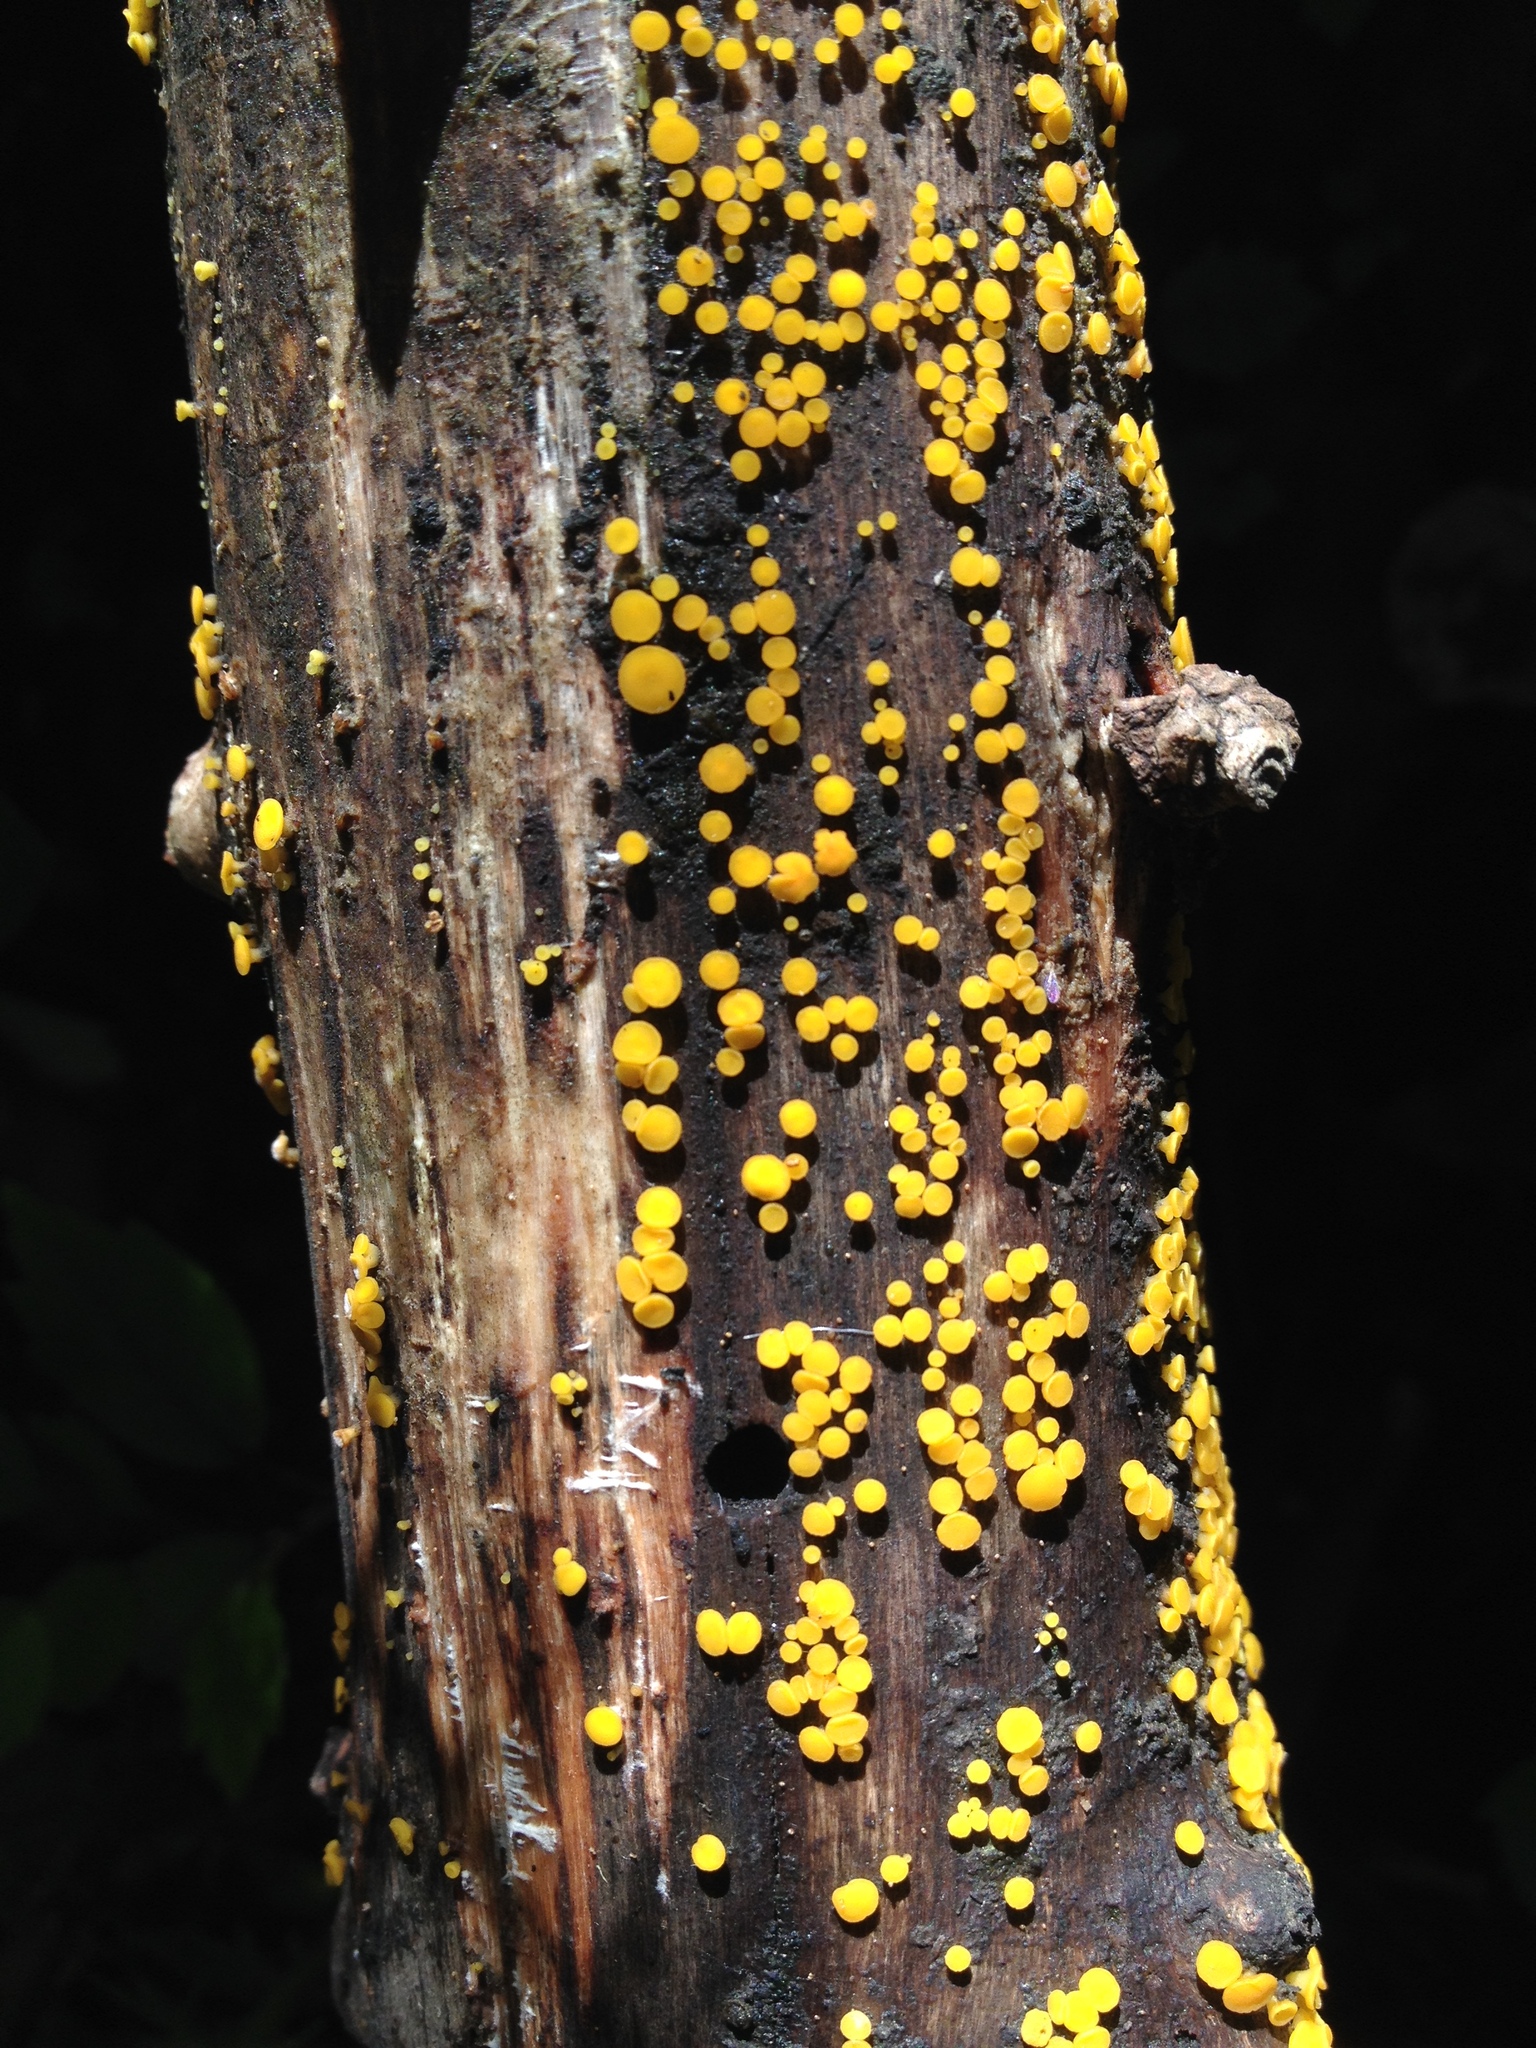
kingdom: Fungi
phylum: Ascomycota
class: Leotiomycetes
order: Helotiales
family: Pezizellaceae
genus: Calycina
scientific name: Calycina citrina
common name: Yellow fairy cups
